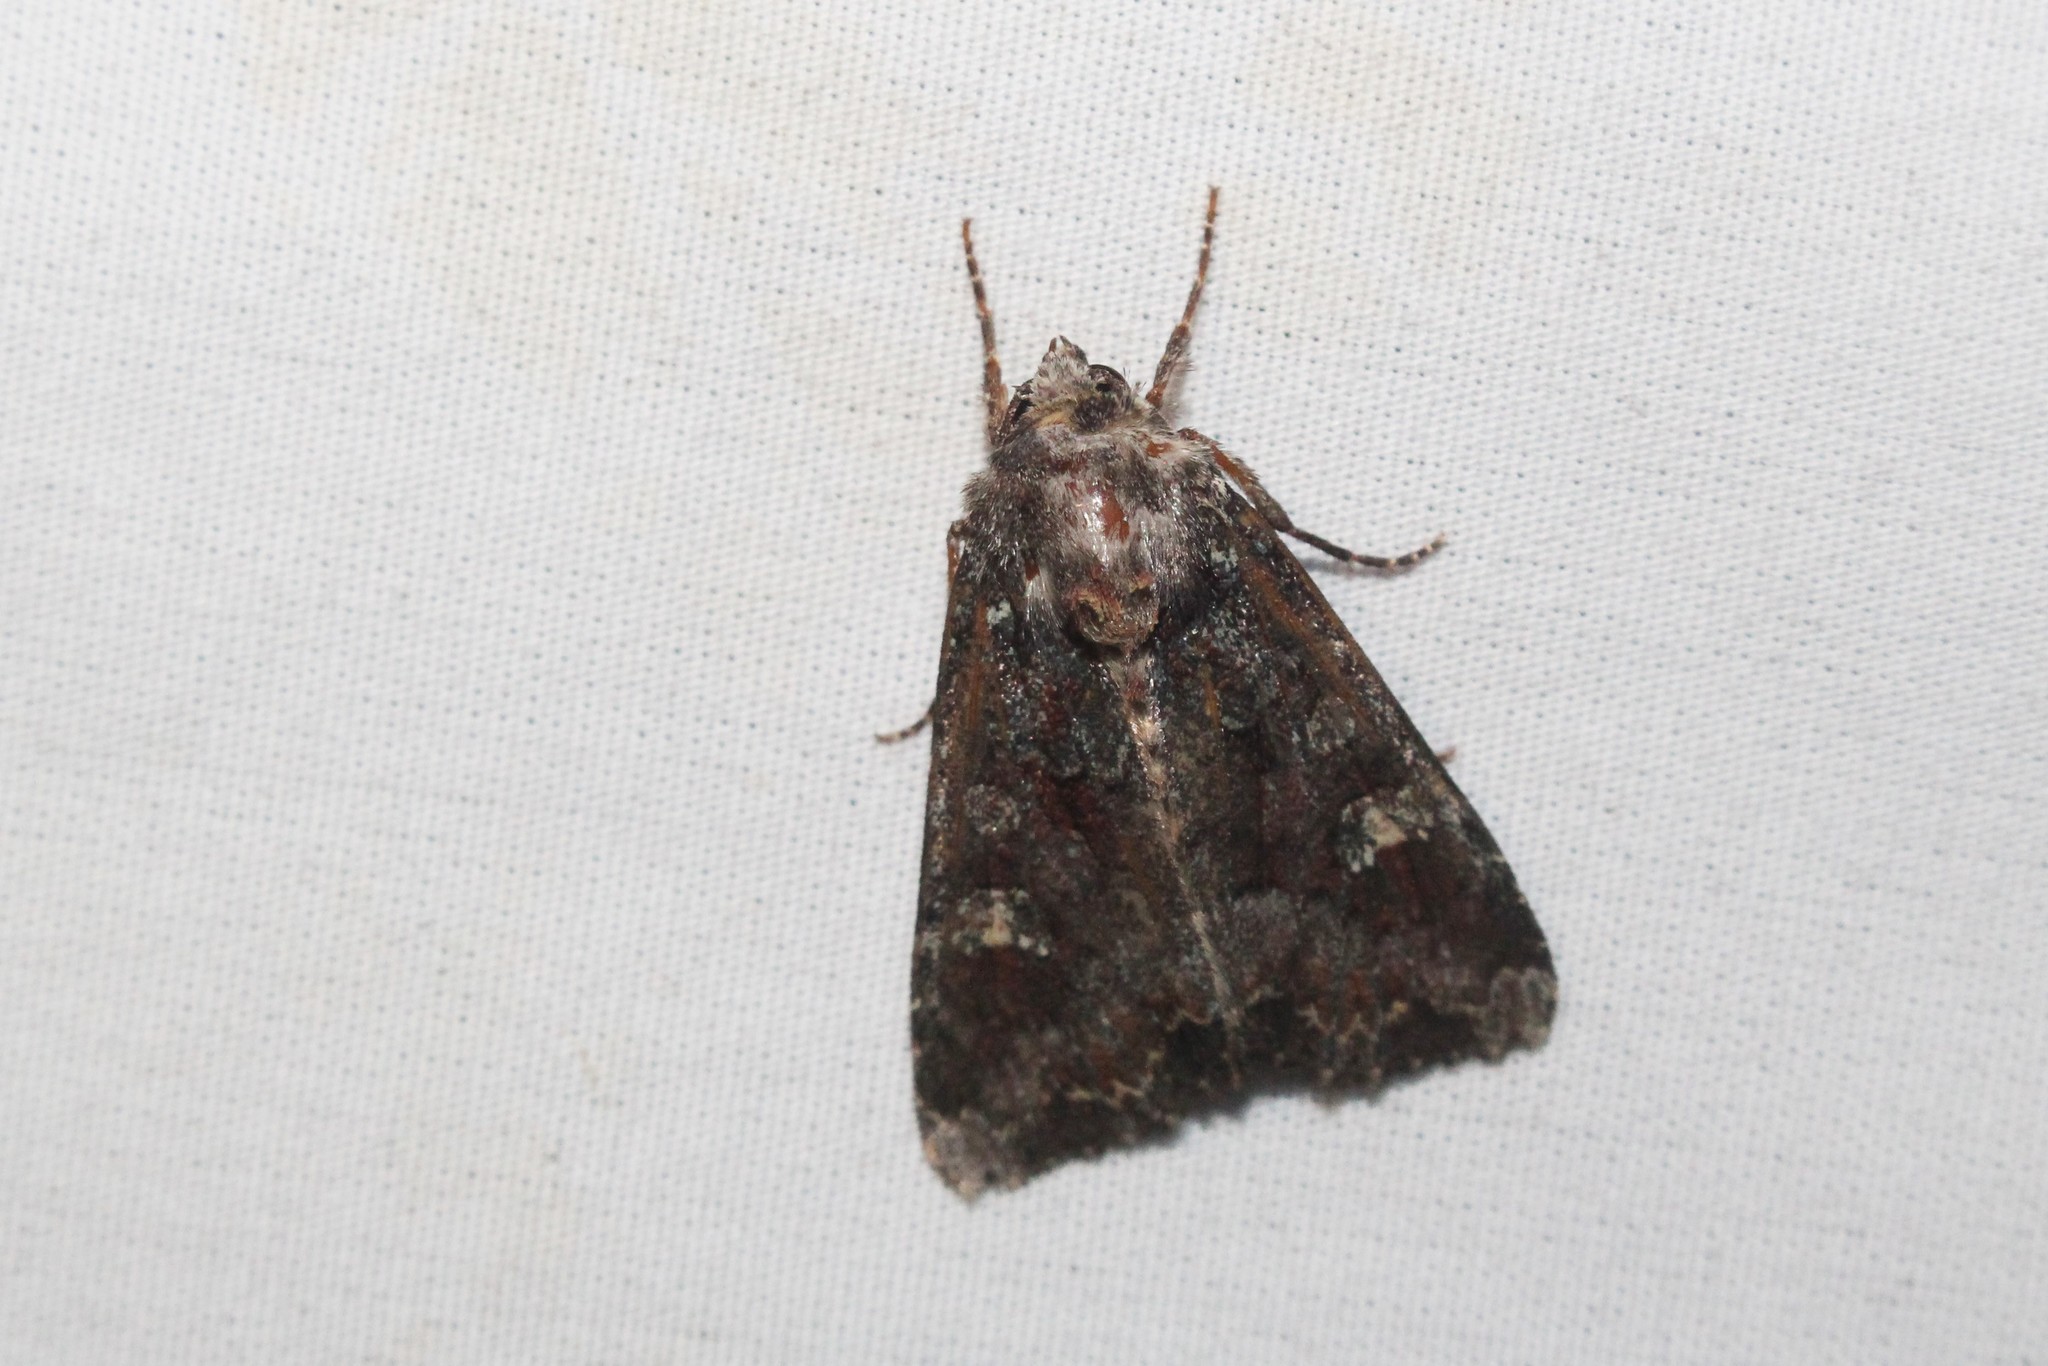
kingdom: Animalia
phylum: Arthropoda
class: Insecta
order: Lepidoptera
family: Noctuidae
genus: Apamea
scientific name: Apamea amputatrix
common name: Yellow-headed cutworm moth
